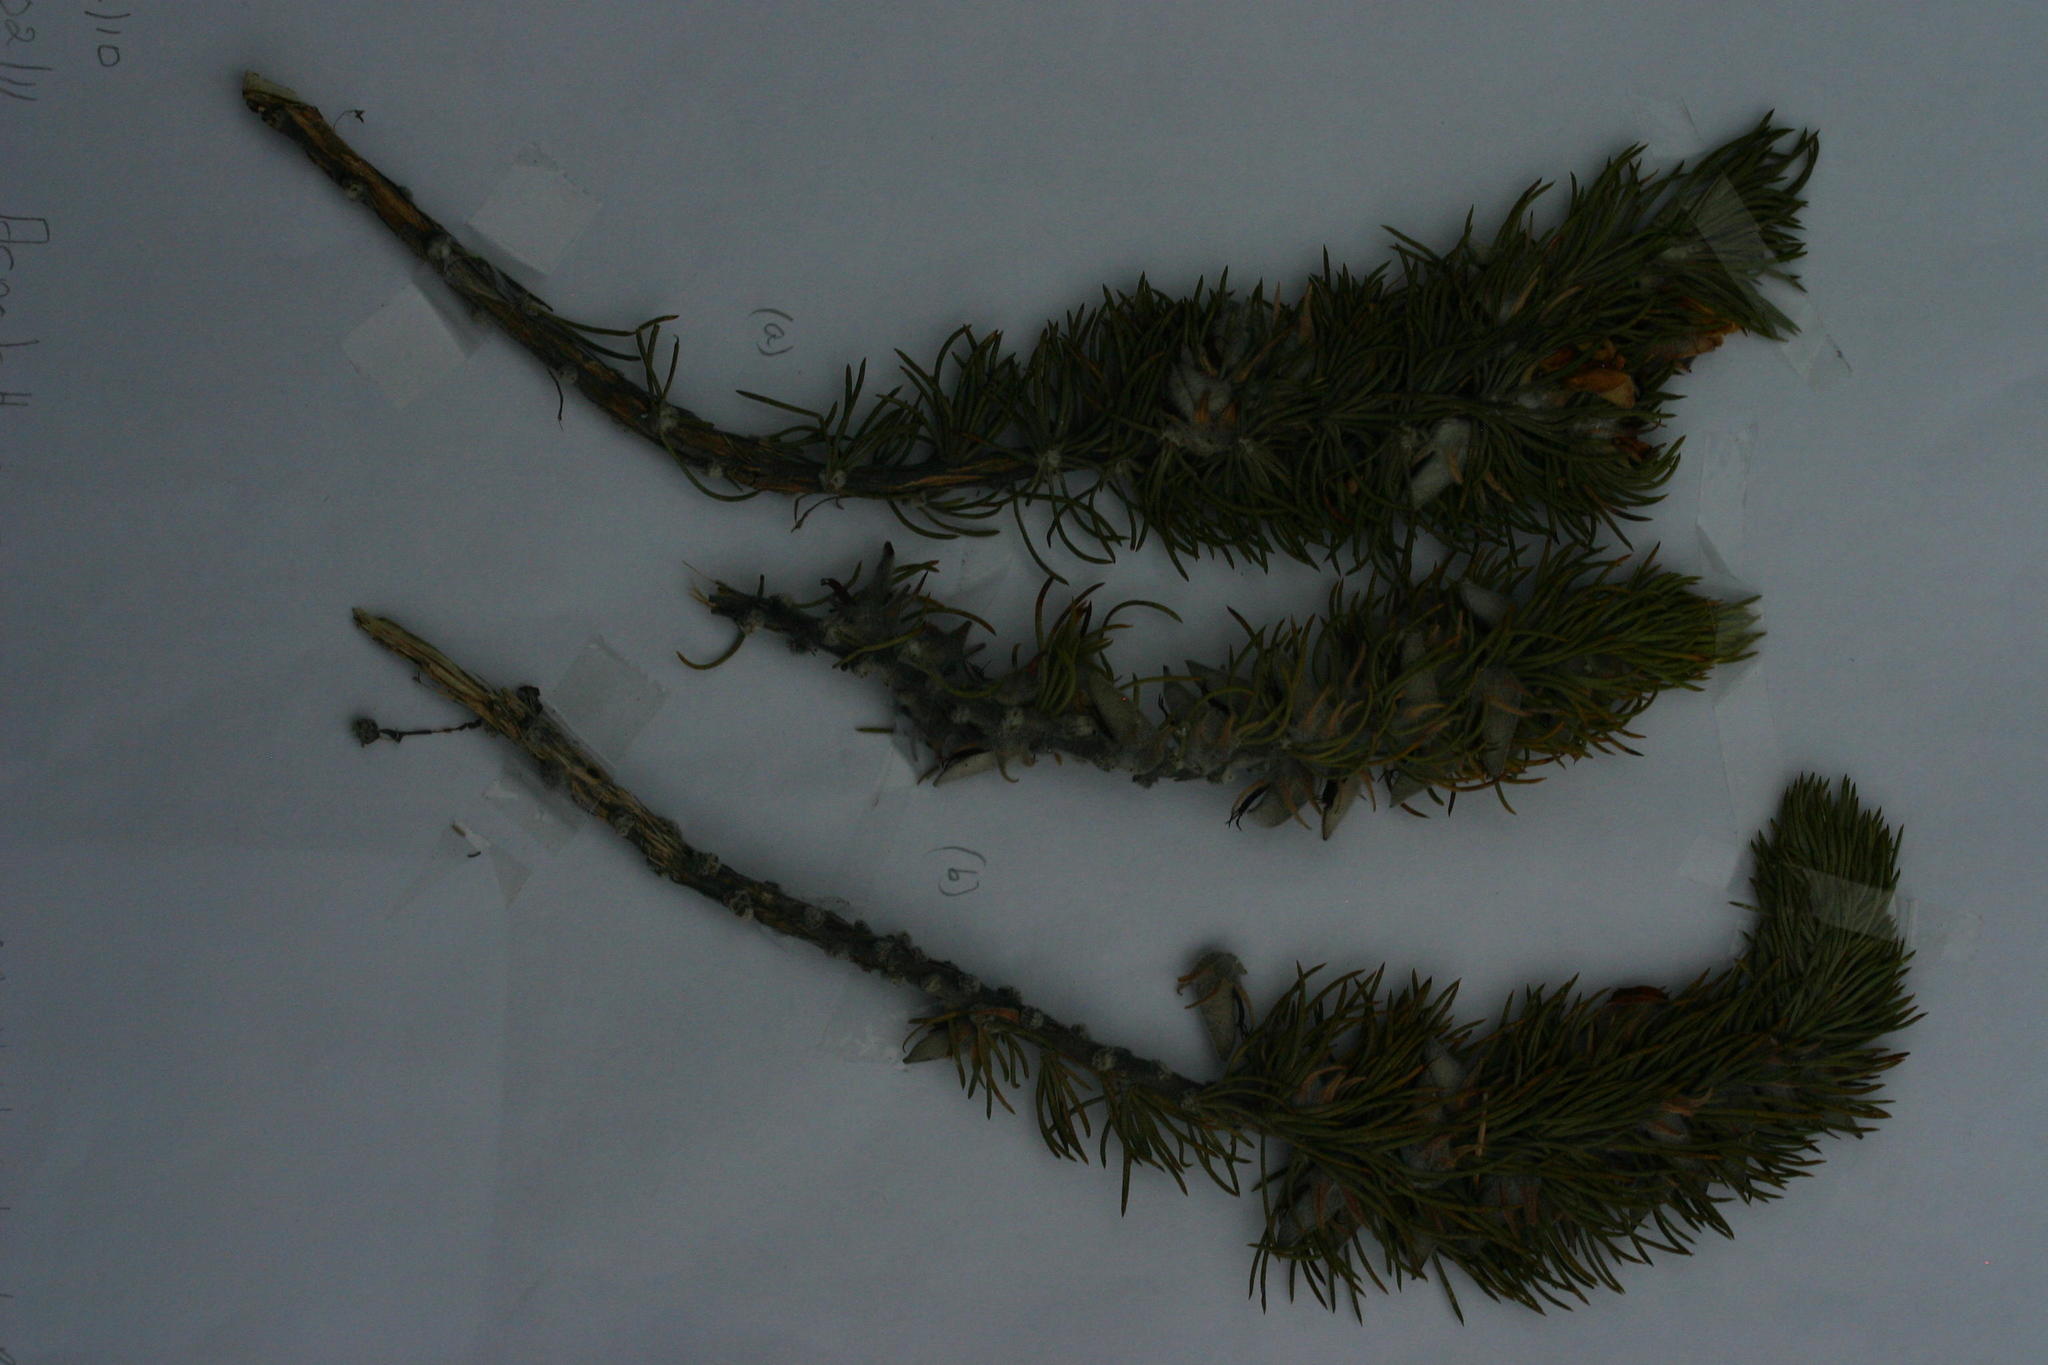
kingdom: Plantae
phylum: Tracheophyta
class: Magnoliopsida
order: Fabales
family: Fabaceae
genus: Aspalathus
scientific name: Aspalathus acanthes
